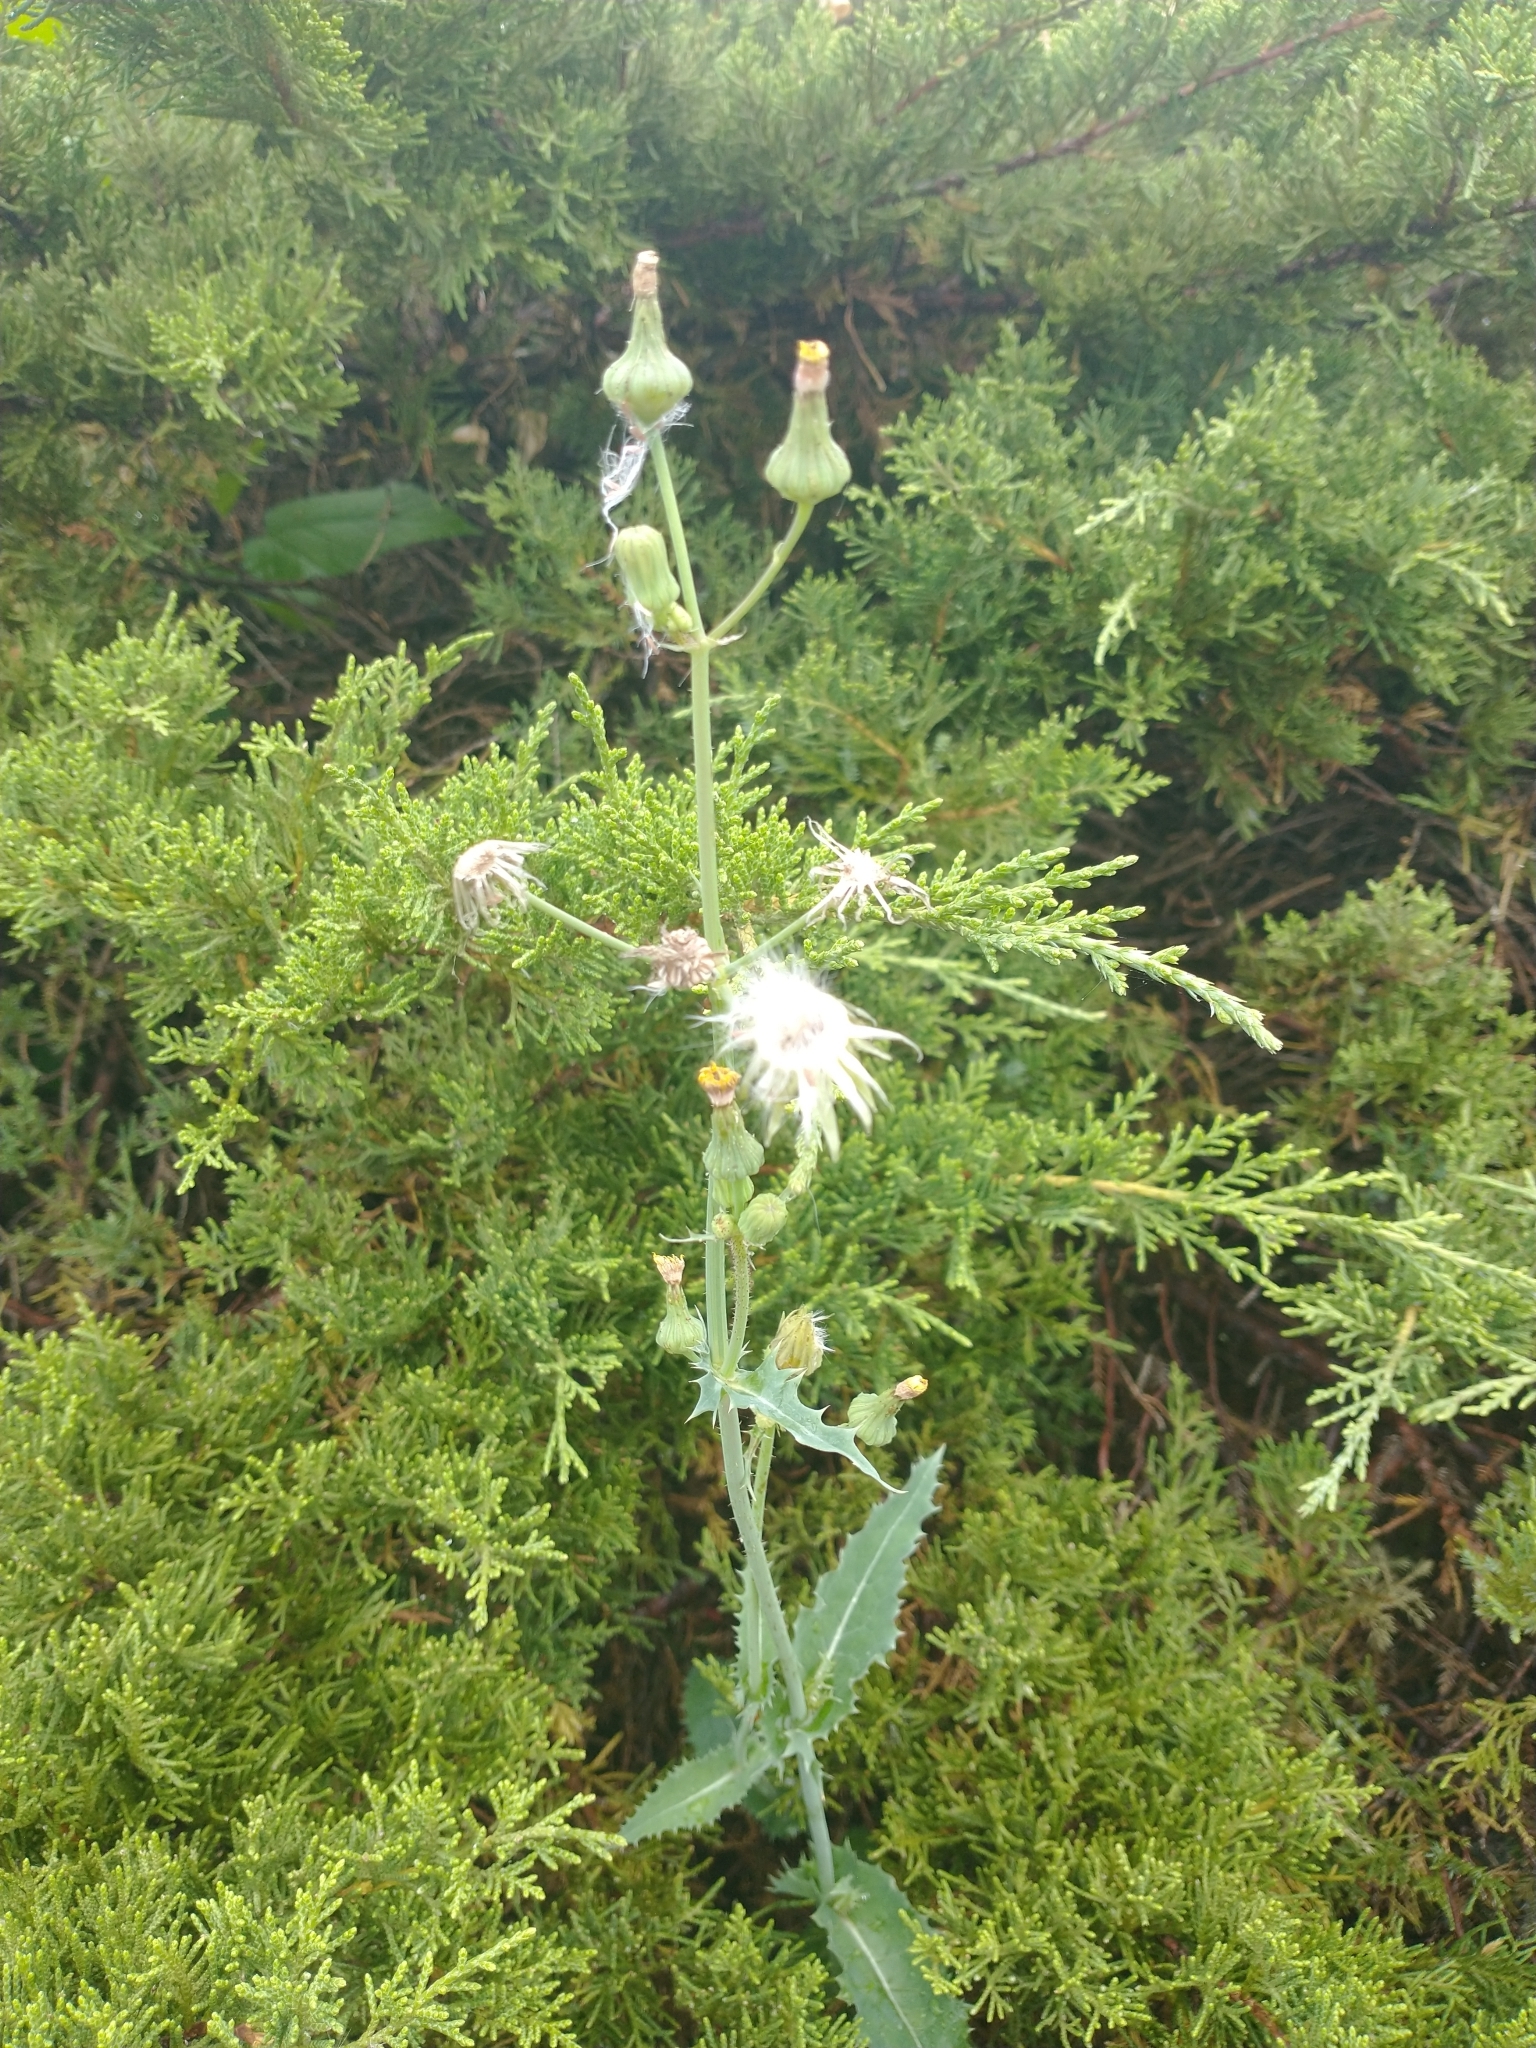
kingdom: Plantae
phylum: Tracheophyta
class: Magnoliopsida
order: Asterales
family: Asteraceae
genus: Sonchus
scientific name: Sonchus asper
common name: Prickly sow-thistle
